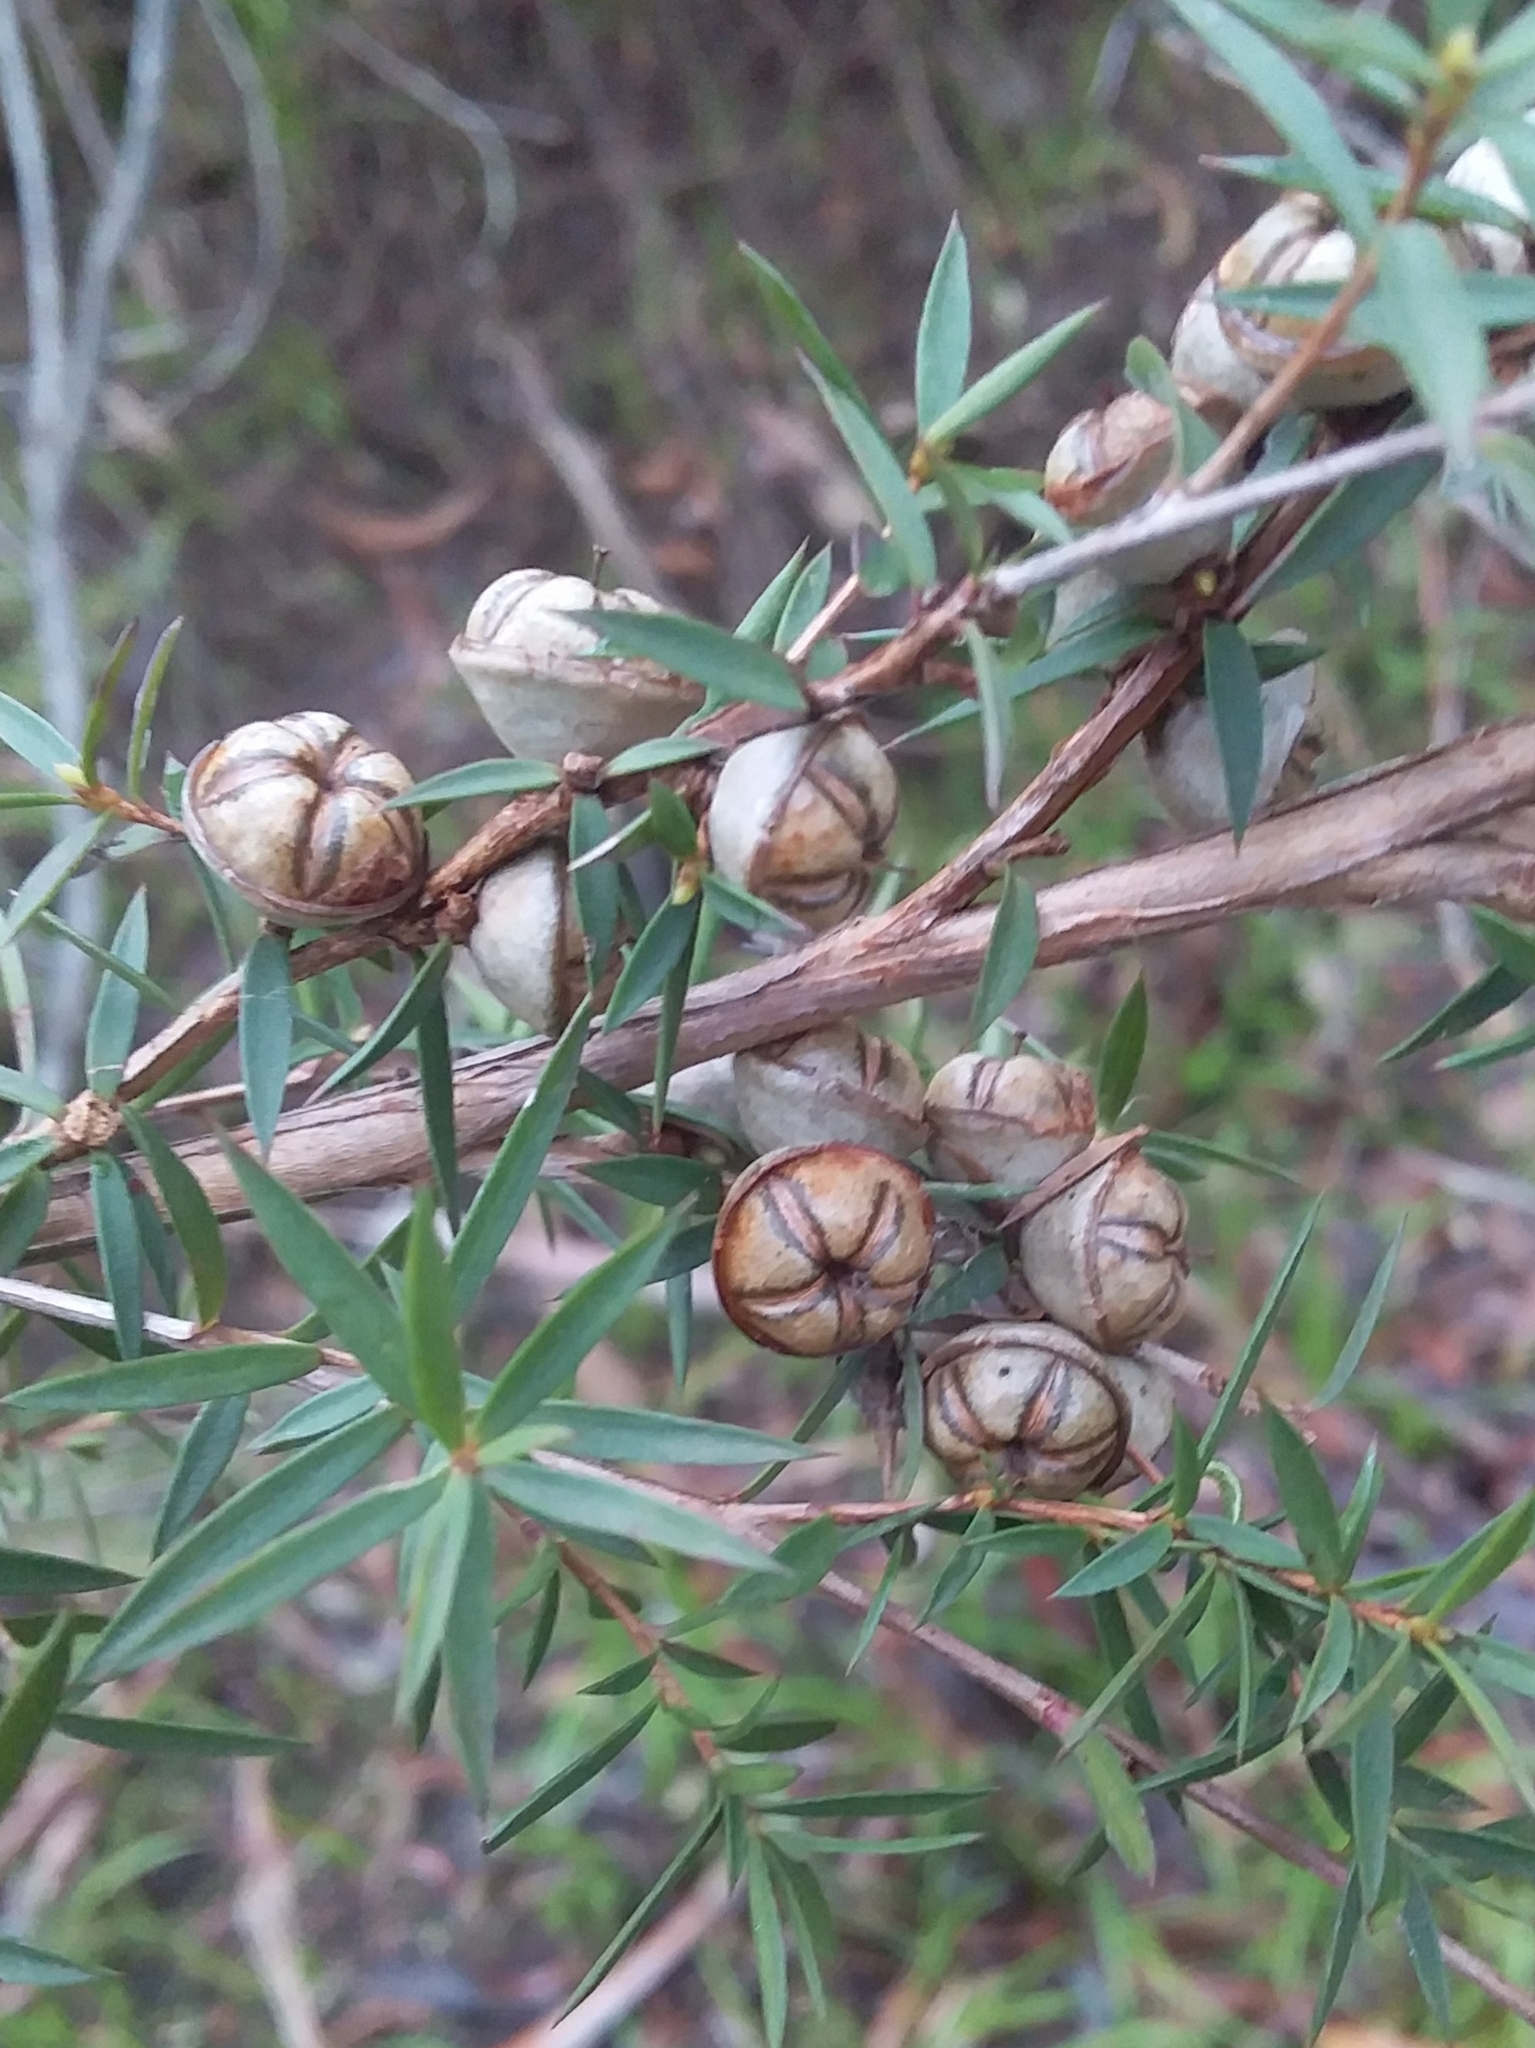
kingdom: Plantae
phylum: Tracheophyta
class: Magnoliopsida
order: Myrtales
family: Myrtaceae
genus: Leptospermum
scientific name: Leptospermum continentale
